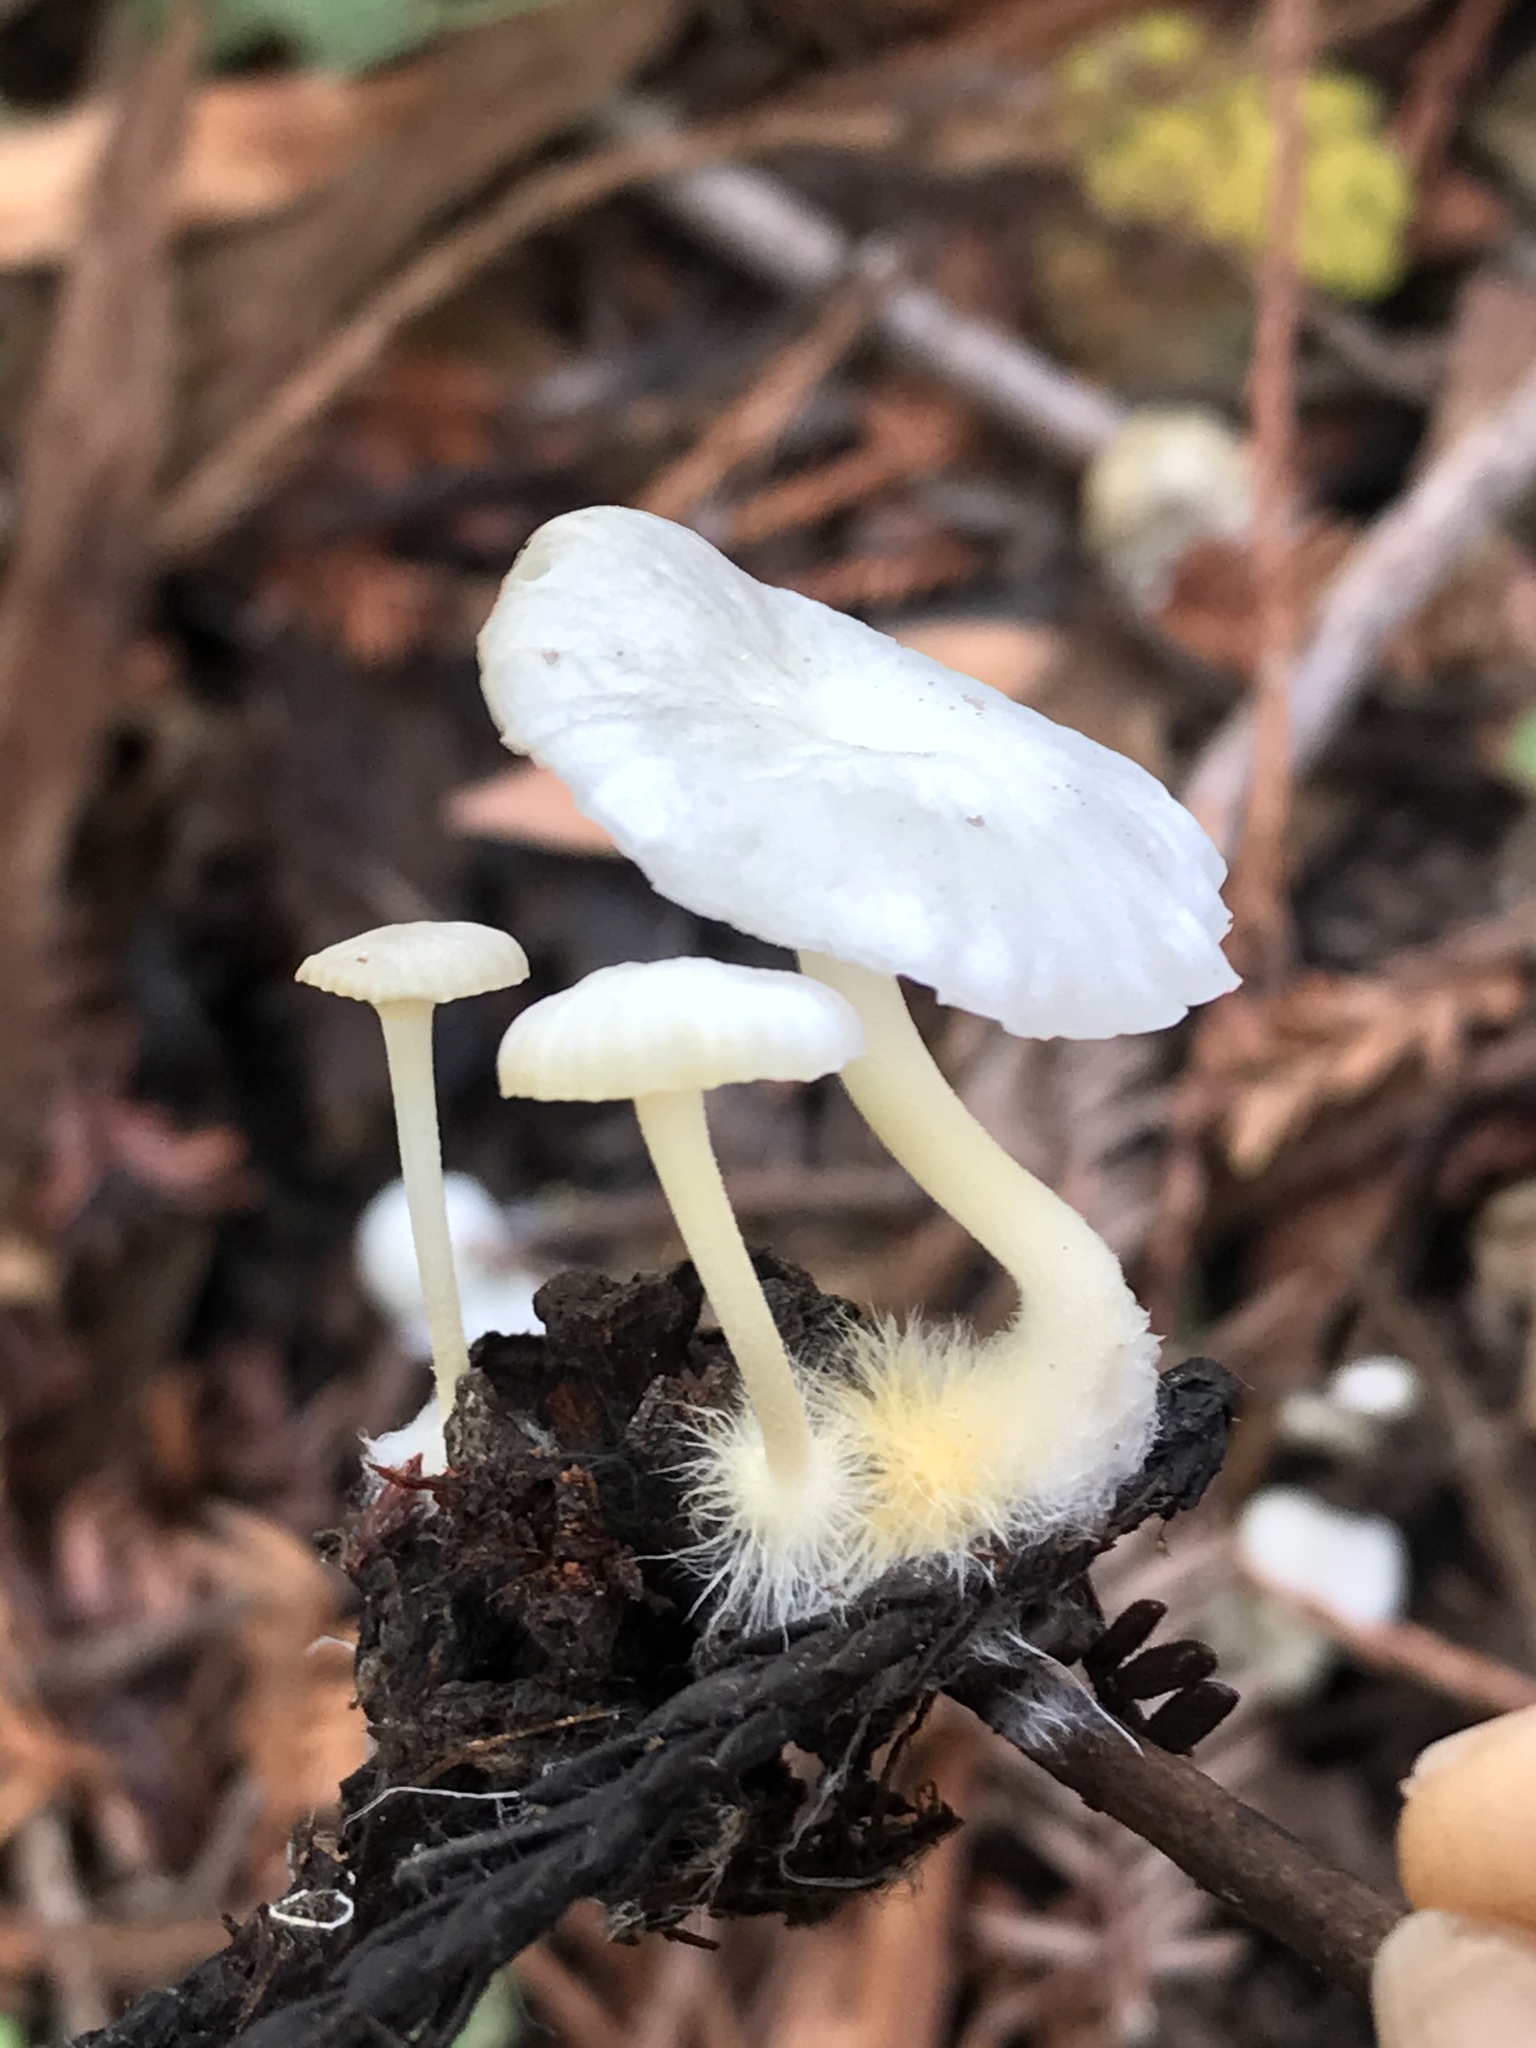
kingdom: Fungi
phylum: Basidiomycota
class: Agaricomycetes
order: Agaricales
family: Marasmiaceae
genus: Marasmius
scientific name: Marasmius calhouniae
